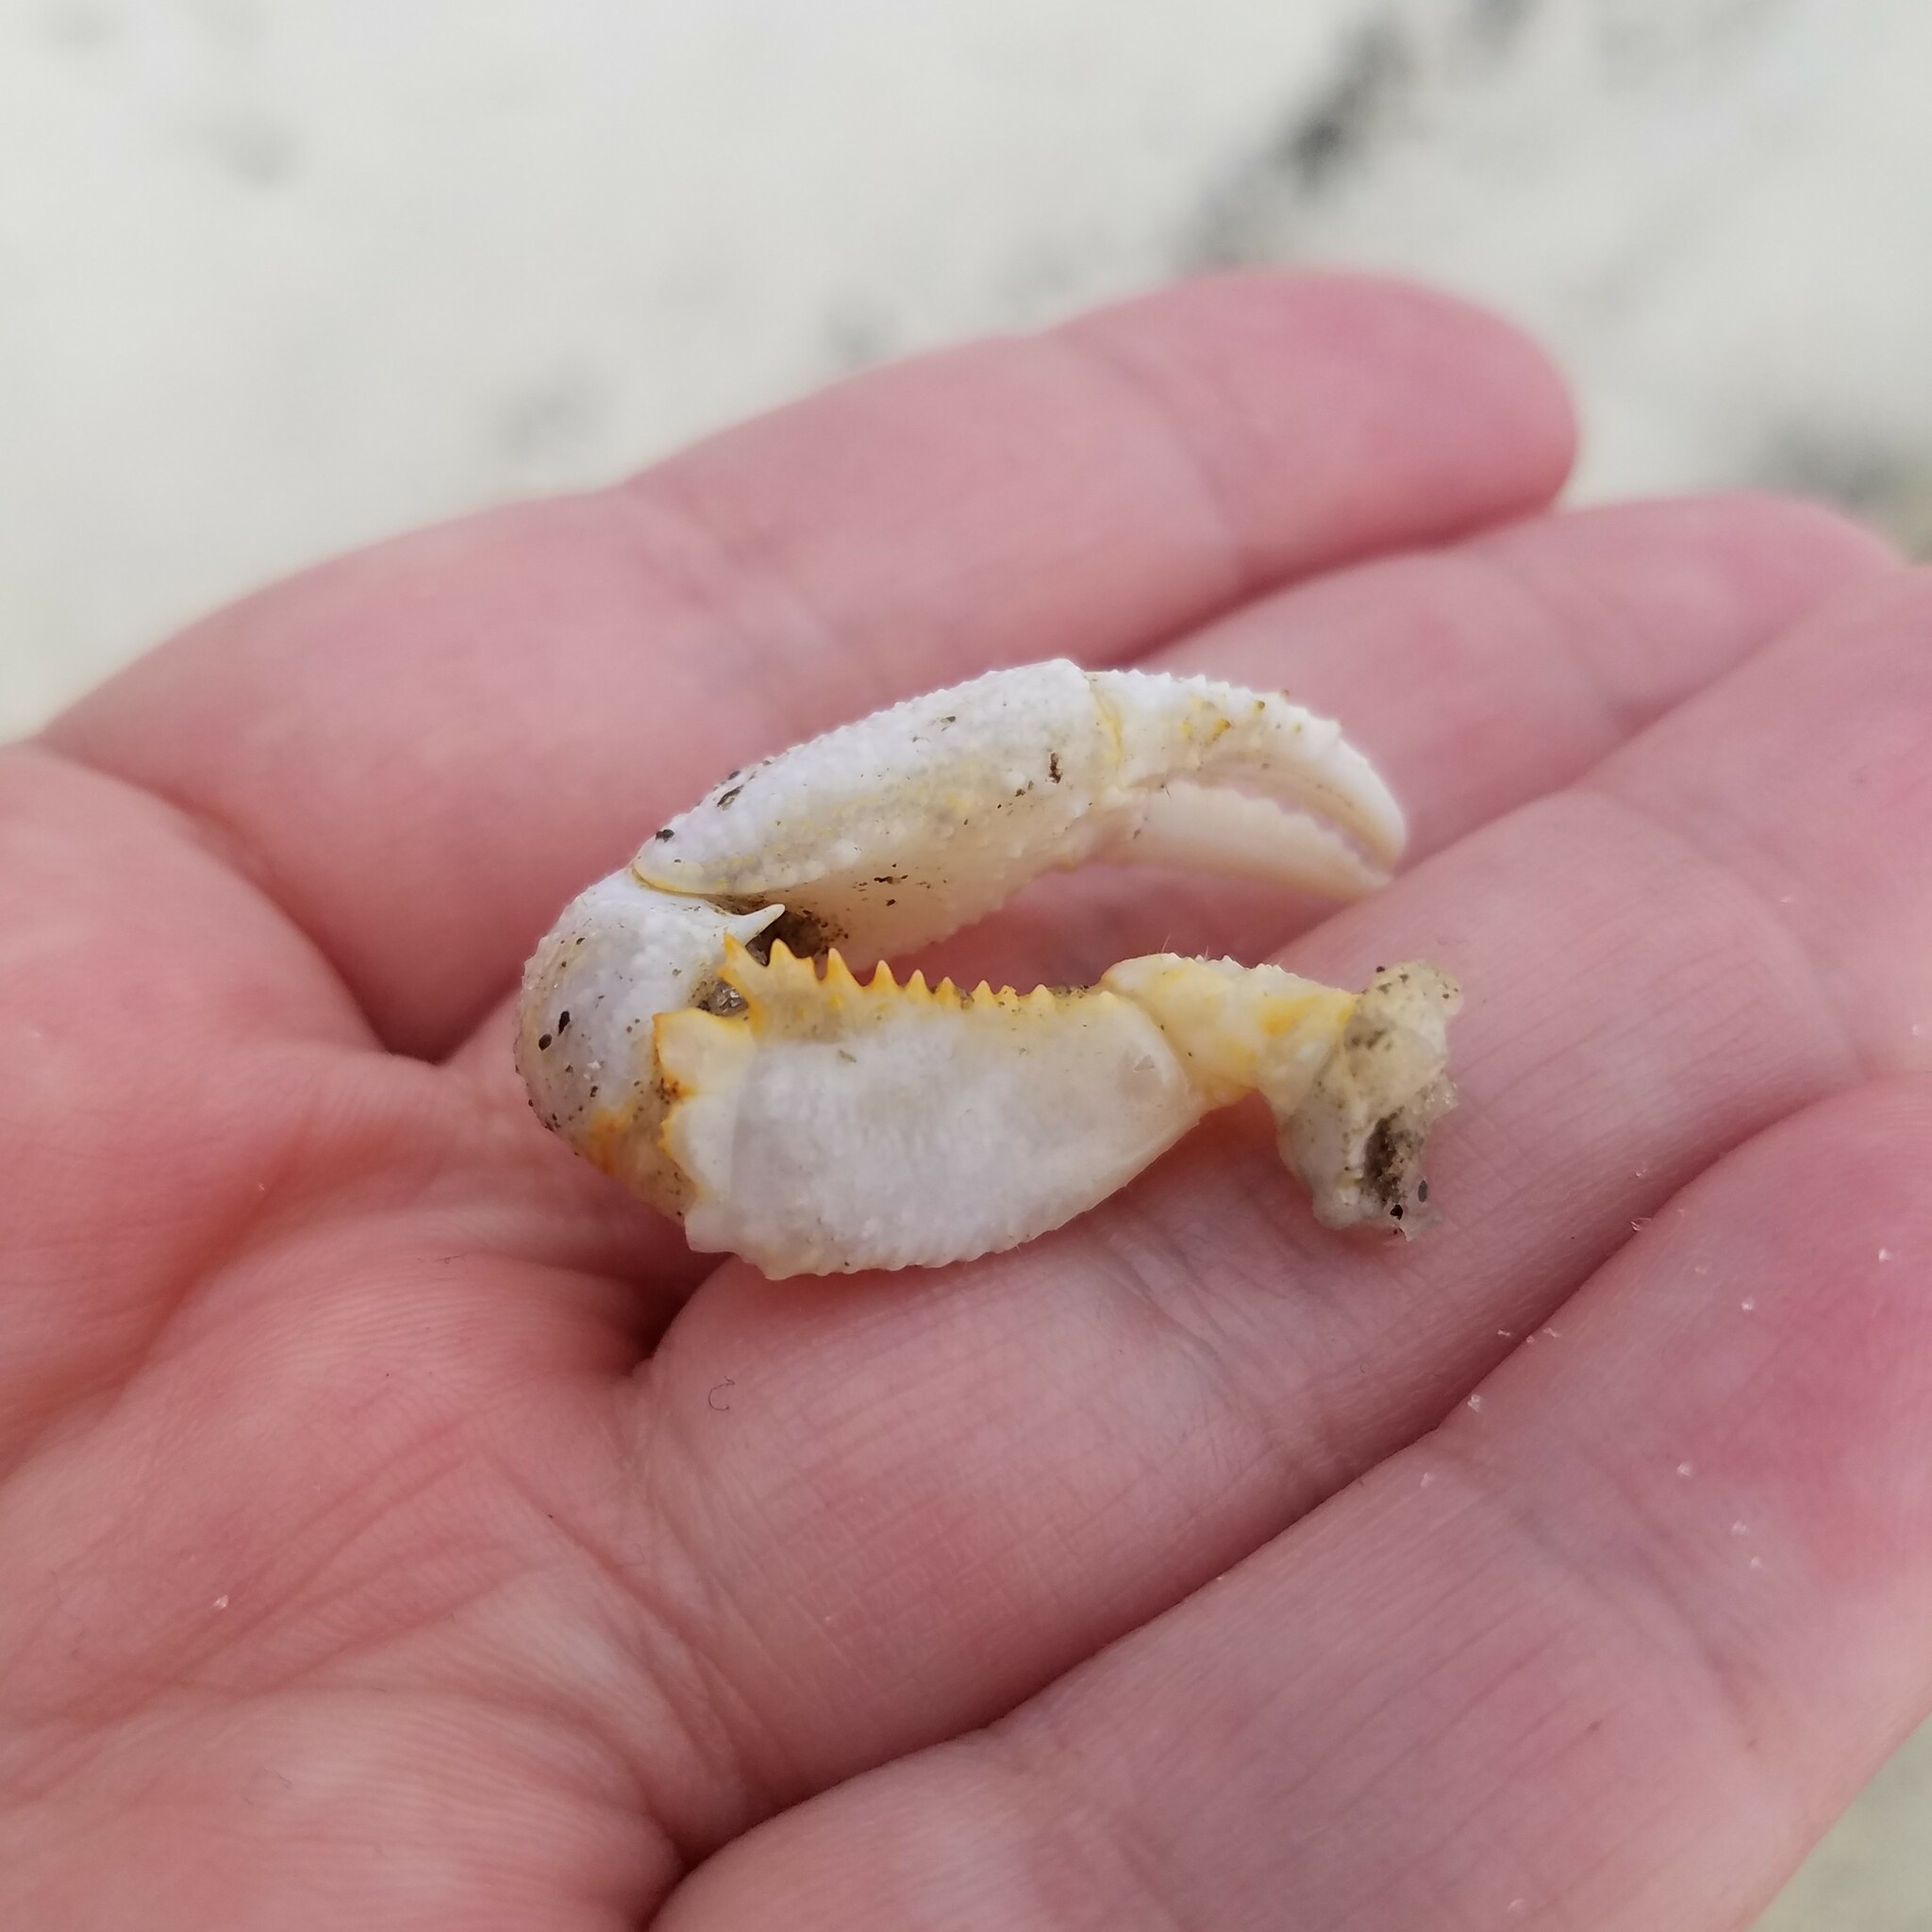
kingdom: Animalia
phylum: Arthropoda
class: Malacostraca
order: Decapoda
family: Ocypodidae
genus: Ocypode
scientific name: Ocypode quadrata
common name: Ghost crab
